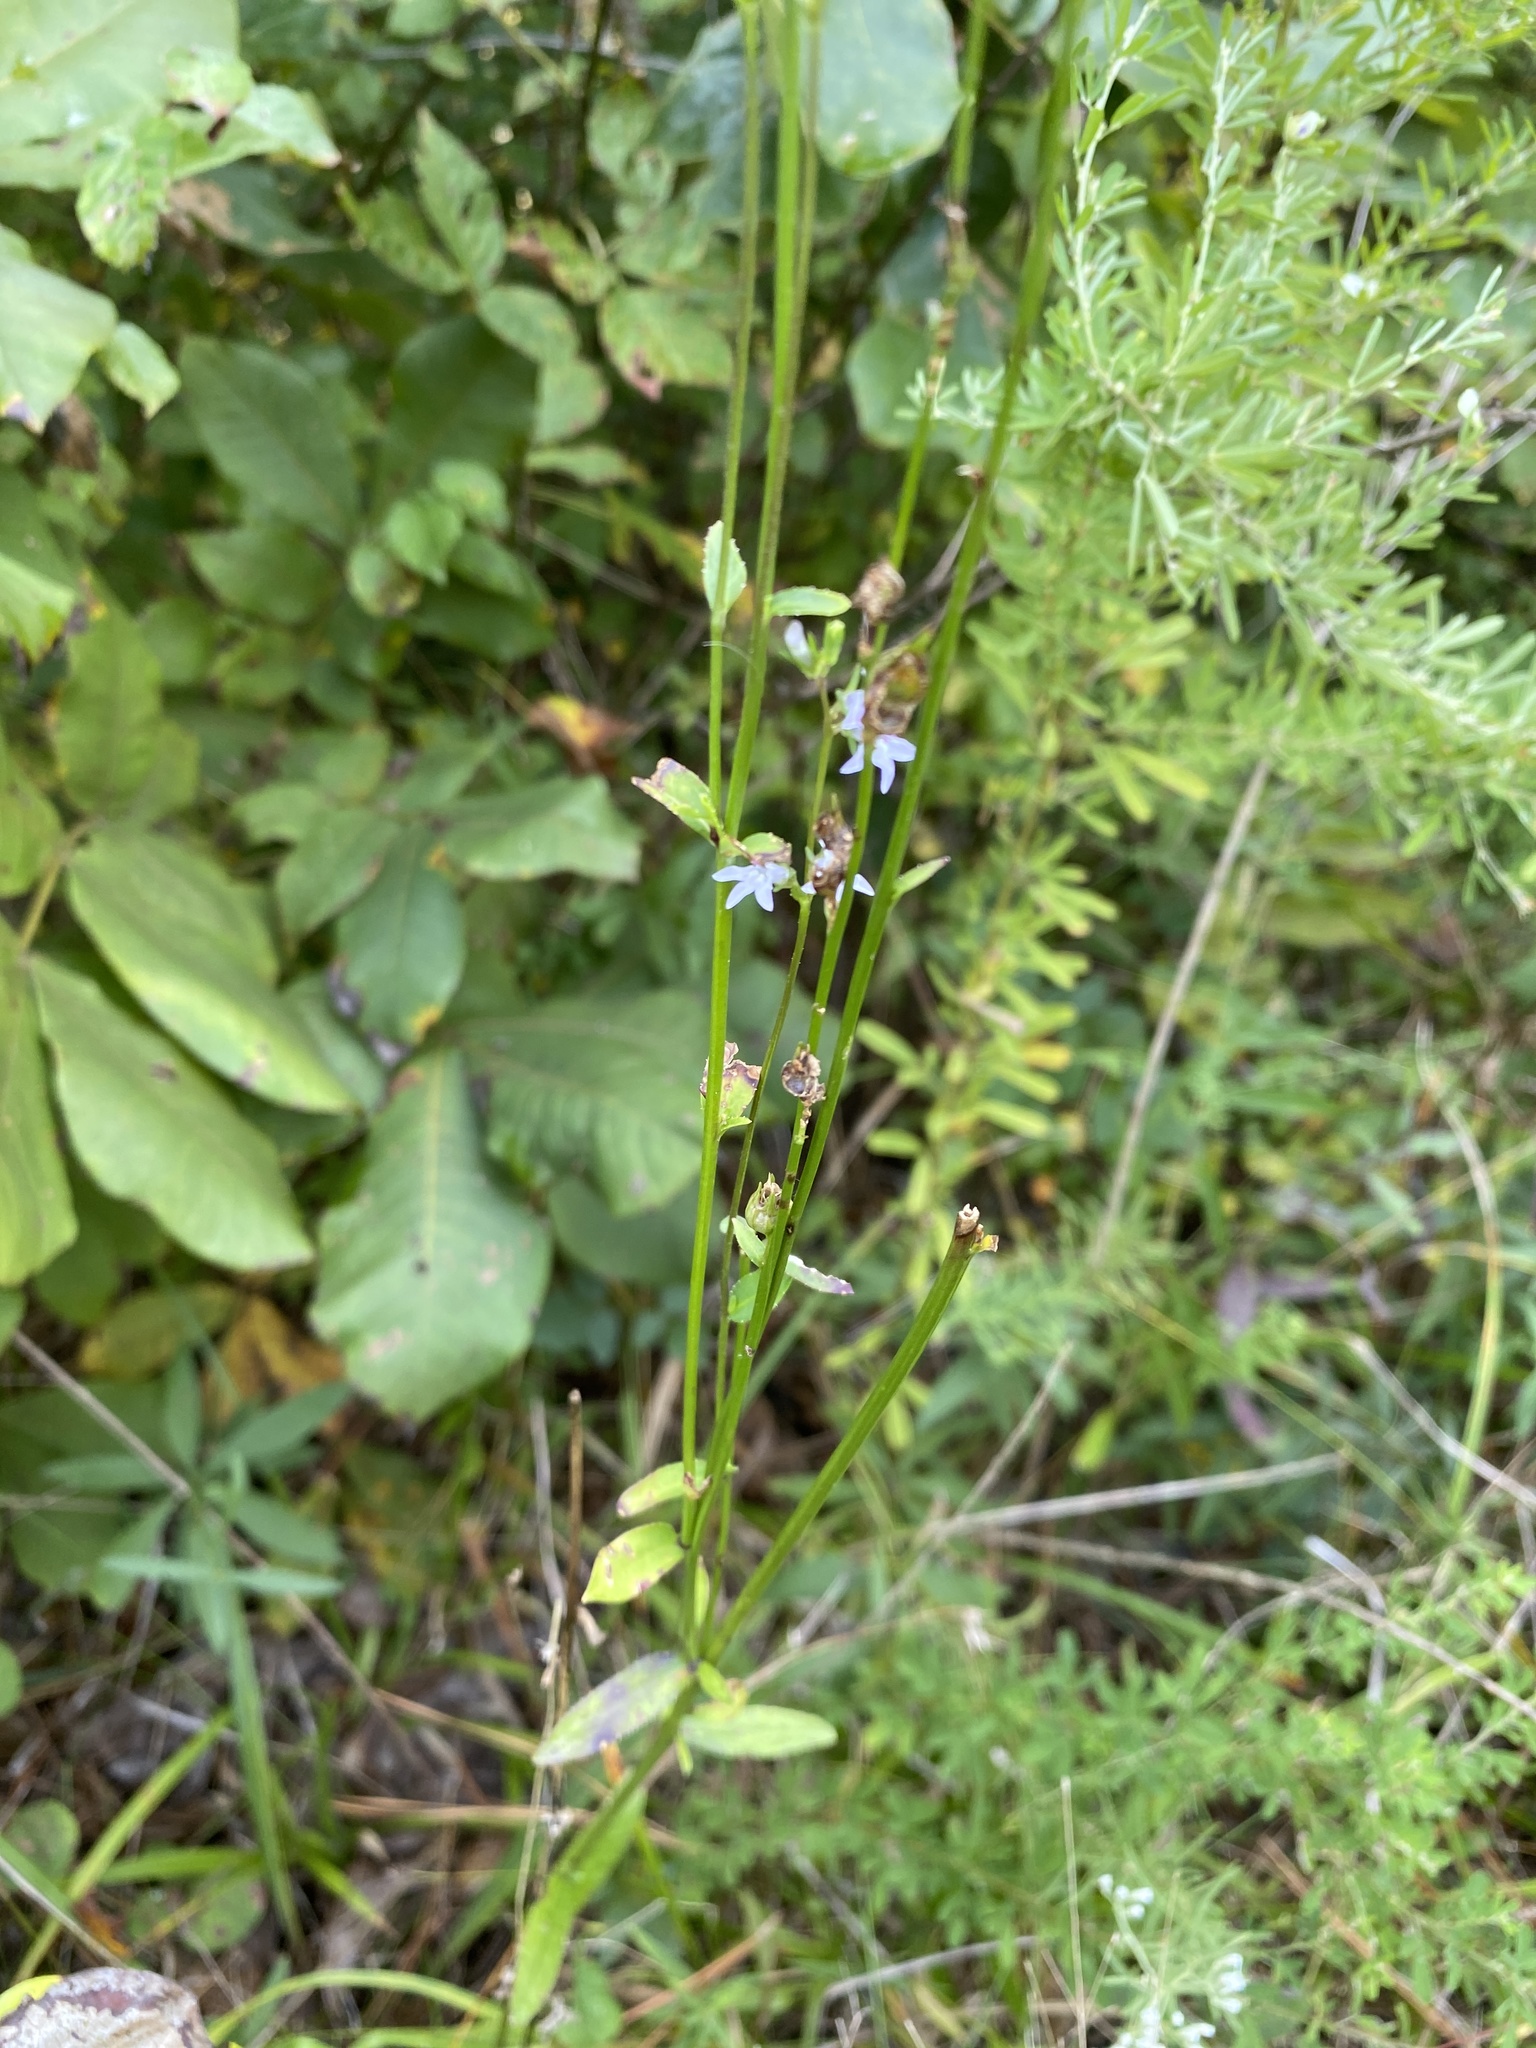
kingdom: Plantae
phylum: Tracheophyta
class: Magnoliopsida
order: Asterales
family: Campanulaceae
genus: Lobelia
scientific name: Lobelia spicata
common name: Pale-spike lobelia
